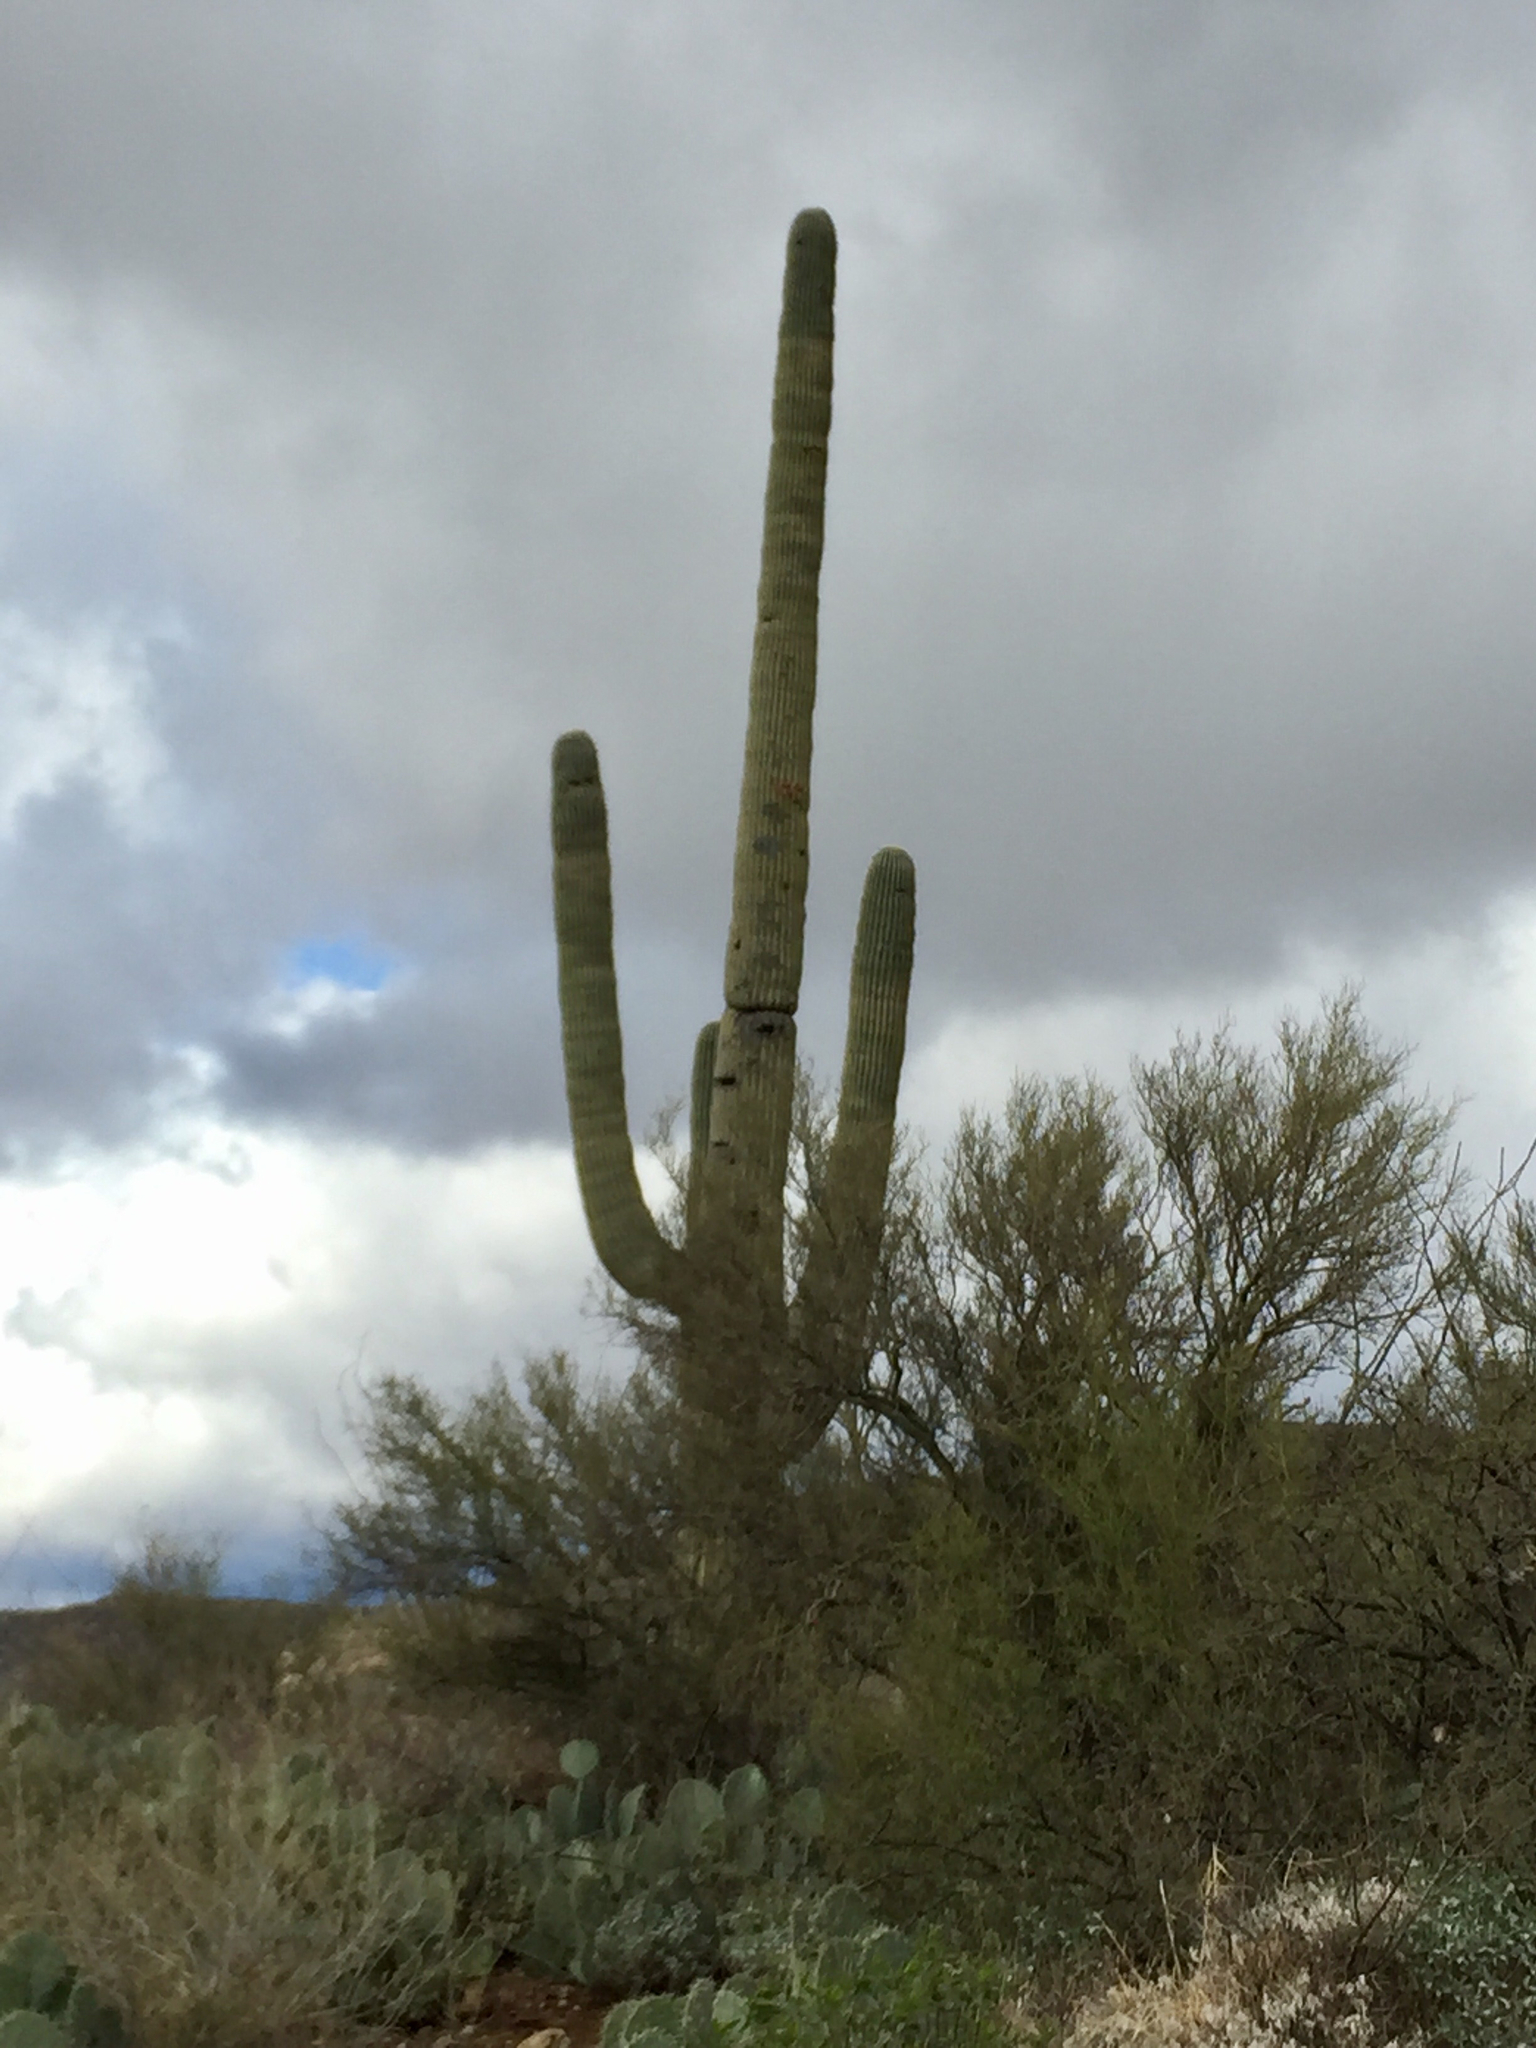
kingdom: Plantae
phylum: Tracheophyta
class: Magnoliopsida
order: Caryophyllales
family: Cactaceae
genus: Carnegiea
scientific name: Carnegiea gigantea
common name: Saguaro
